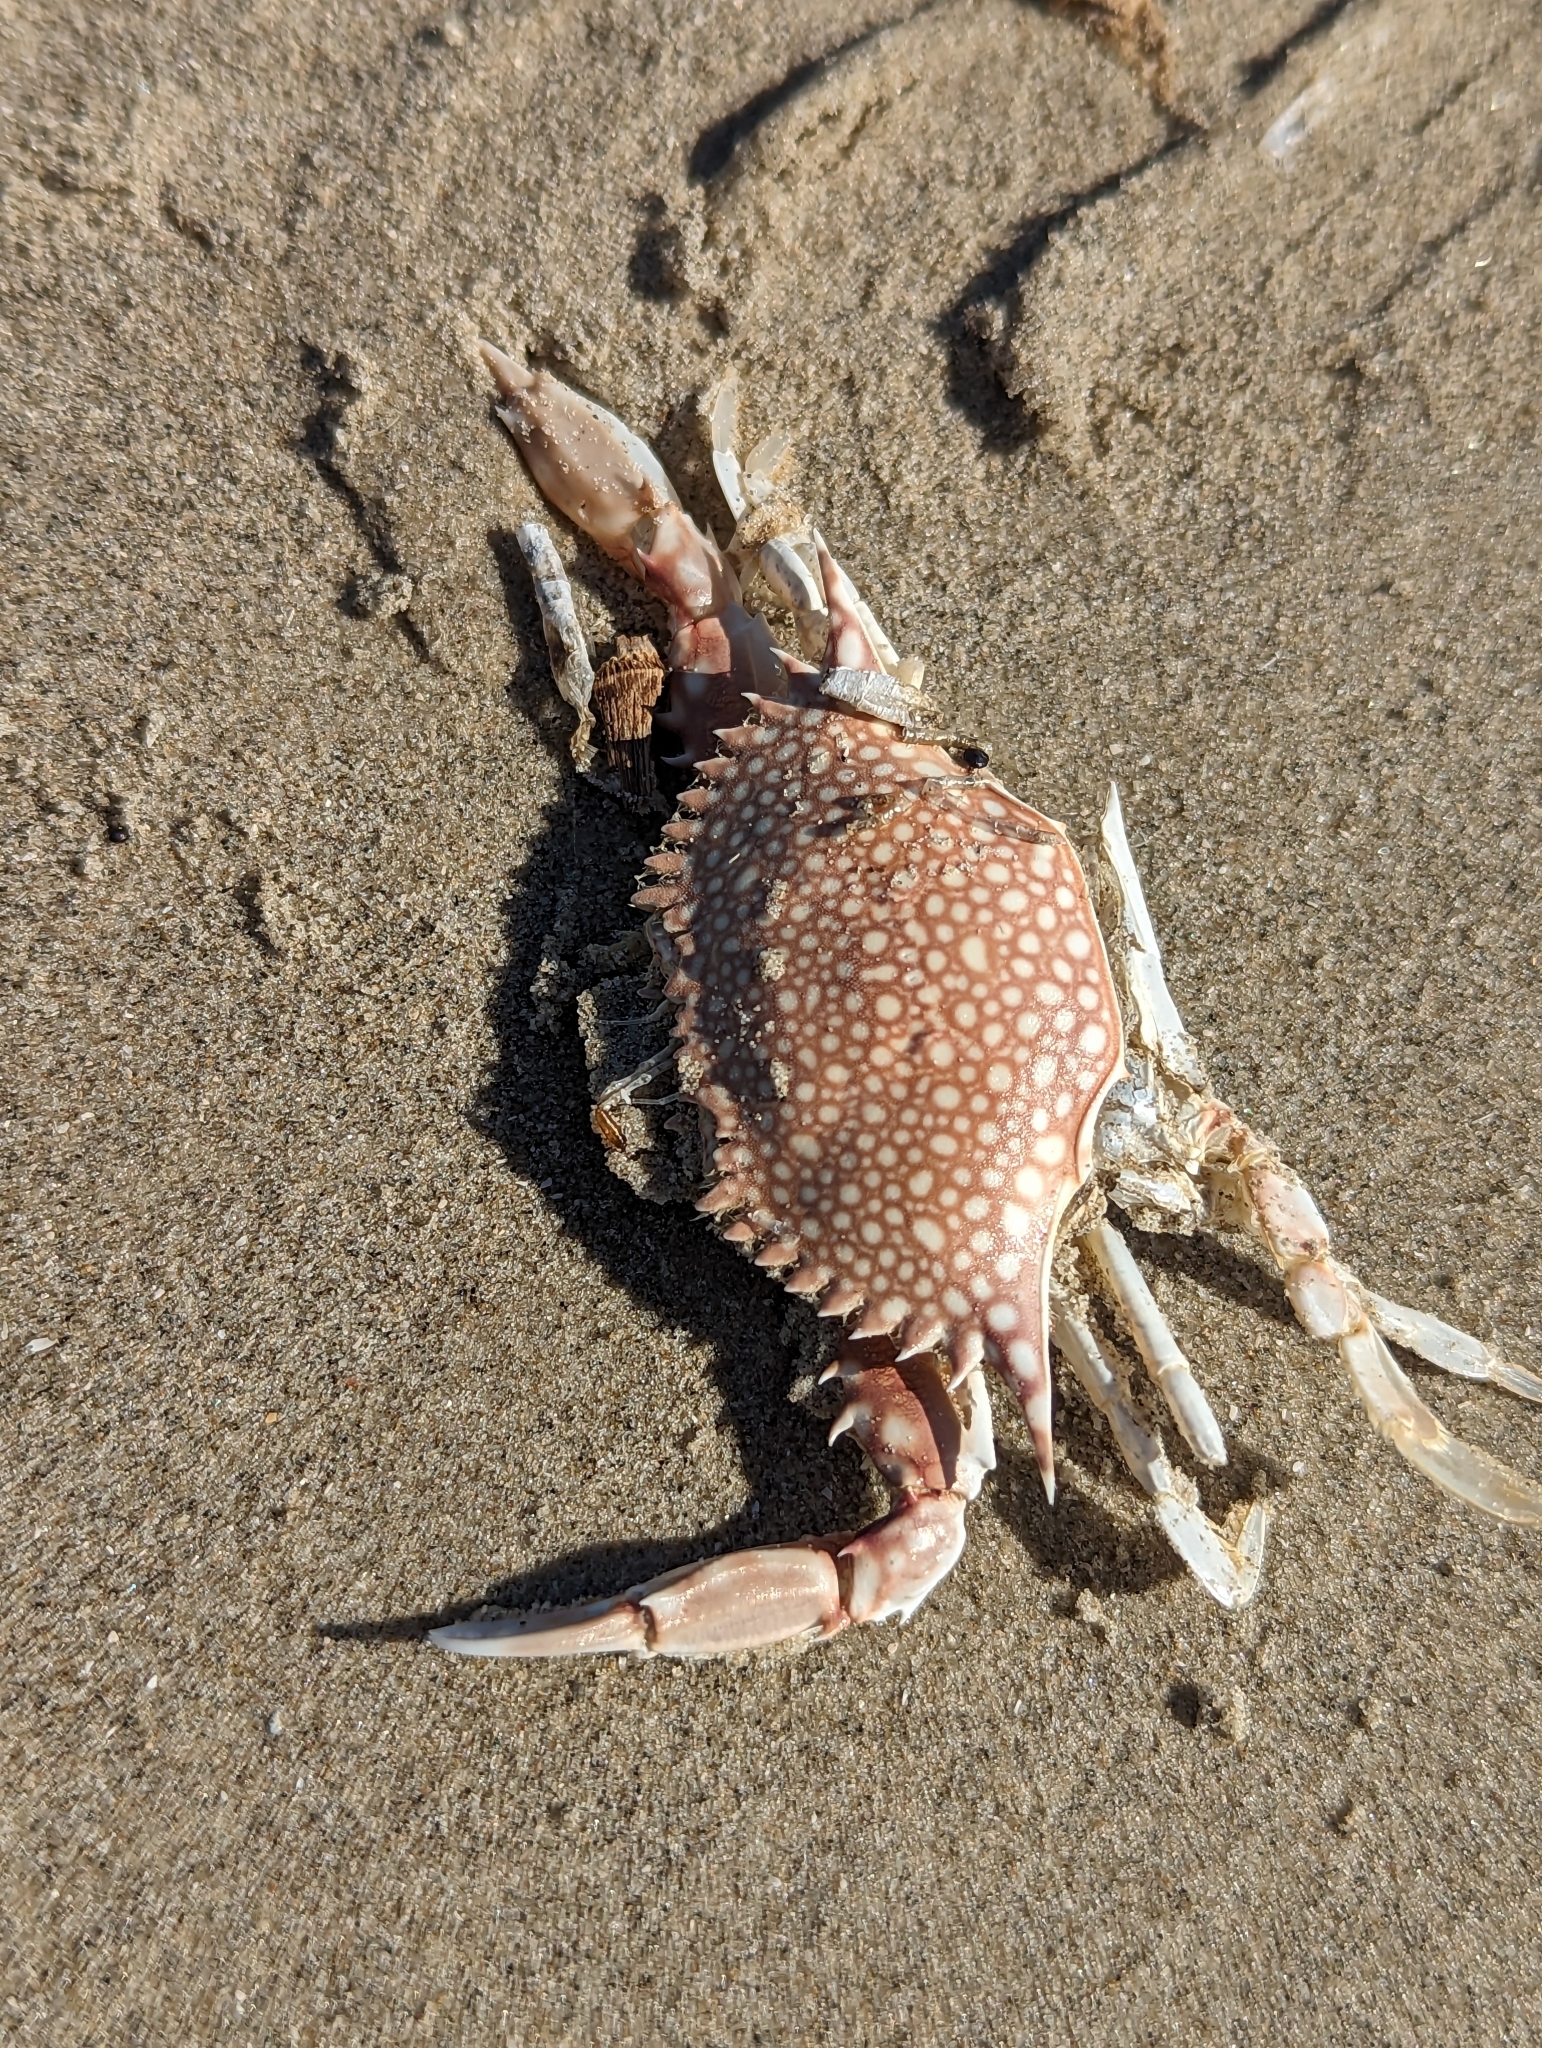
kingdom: Animalia
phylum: Arthropoda
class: Malacostraca
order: Decapoda
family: Portunidae
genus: Arenaeus
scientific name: Arenaeus cribrarius
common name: Speckled crab
